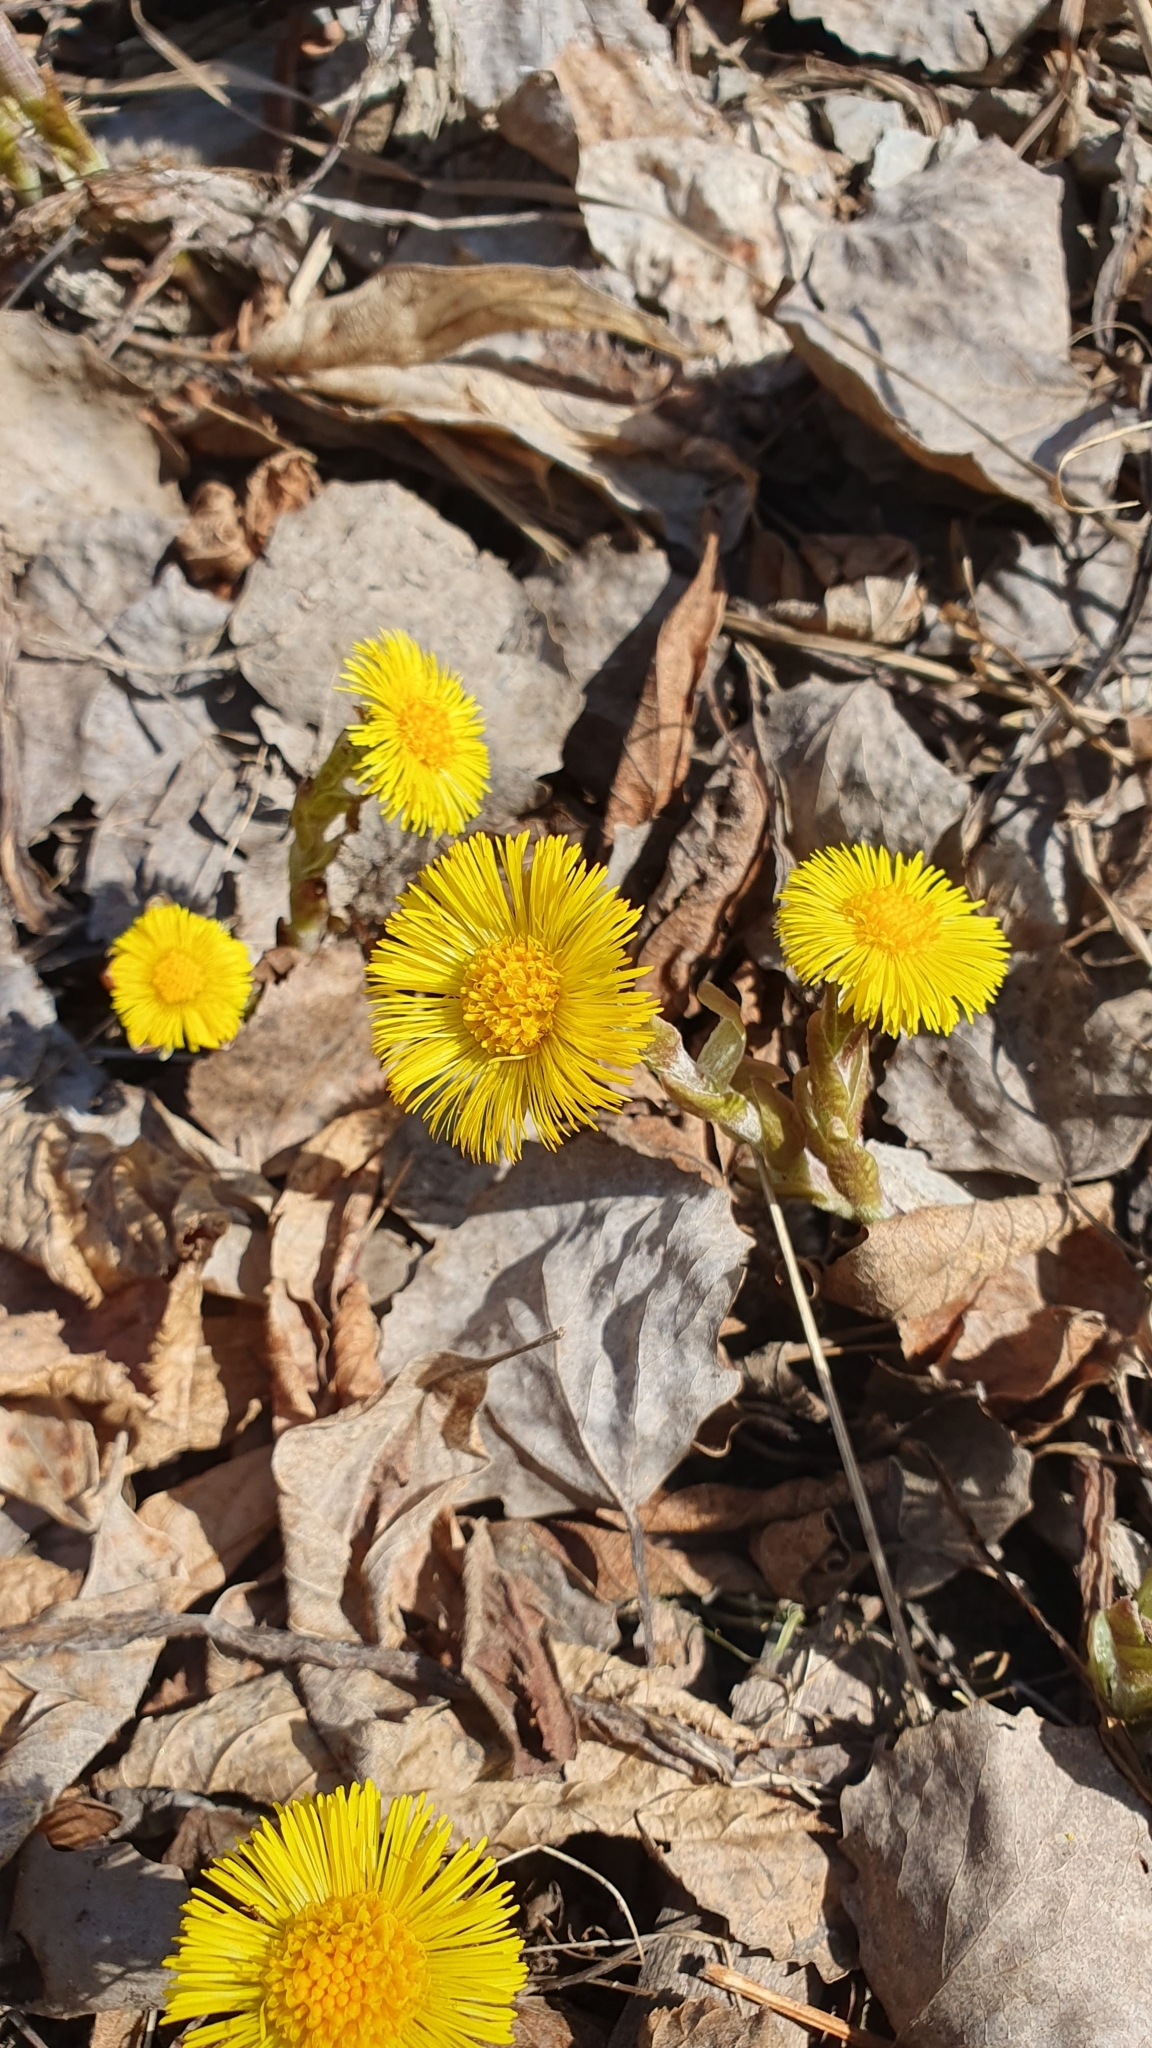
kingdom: Plantae
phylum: Tracheophyta
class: Magnoliopsida
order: Asterales
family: Asteraceae
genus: Tussilago
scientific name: Tussilago farfara
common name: Coltsfoot
